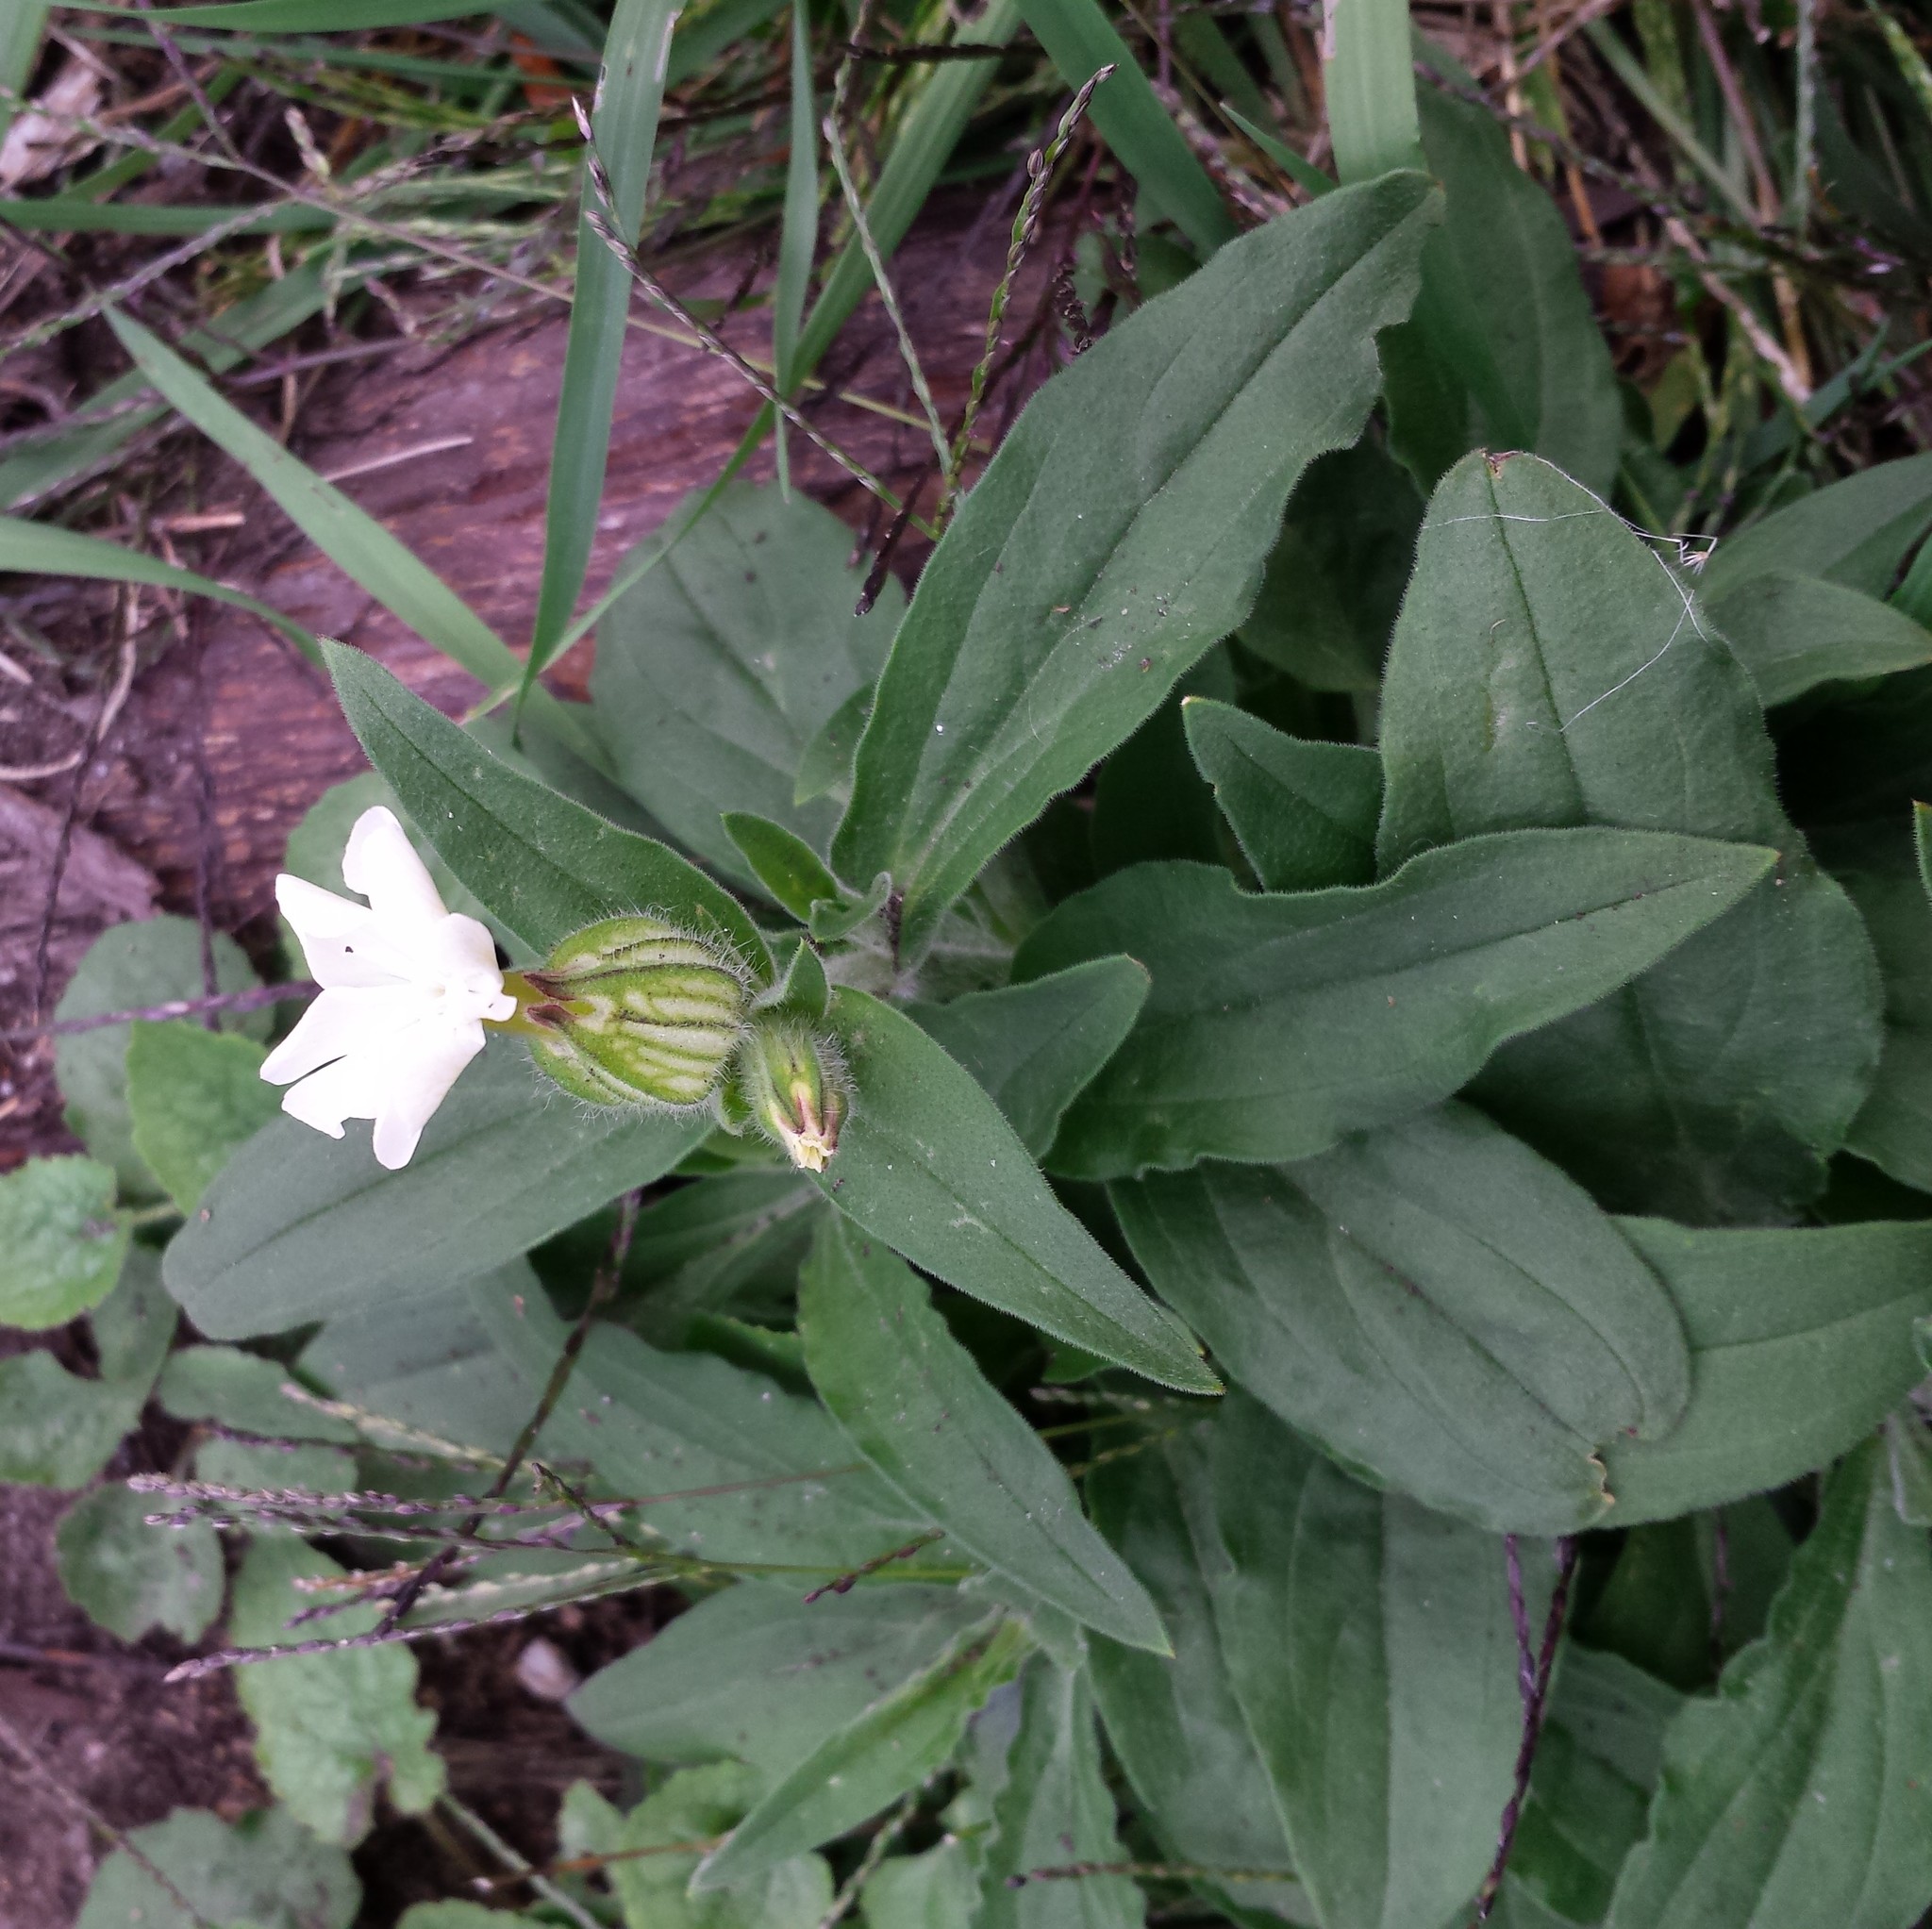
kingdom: Plantae
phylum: Tracheophyta
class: Magnoliopsida
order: Caryophyllales
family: Caryophyllaceae
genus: Silene
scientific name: Silene latifolia
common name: White campion
